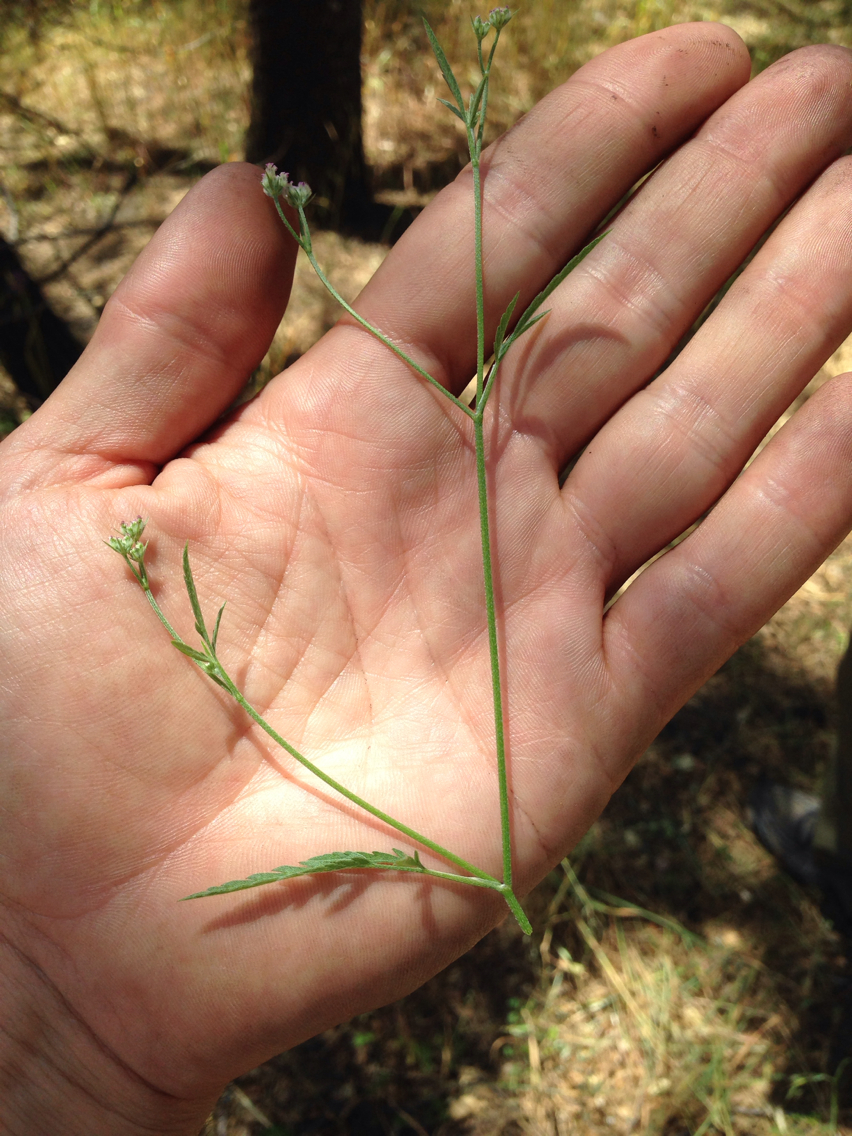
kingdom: Plantae
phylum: Tracheophyta
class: Magnoliopsida
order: Apiales
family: Apiaceae
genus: Torilis
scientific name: Torilis arvensis
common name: Spreading hedge-parsley
